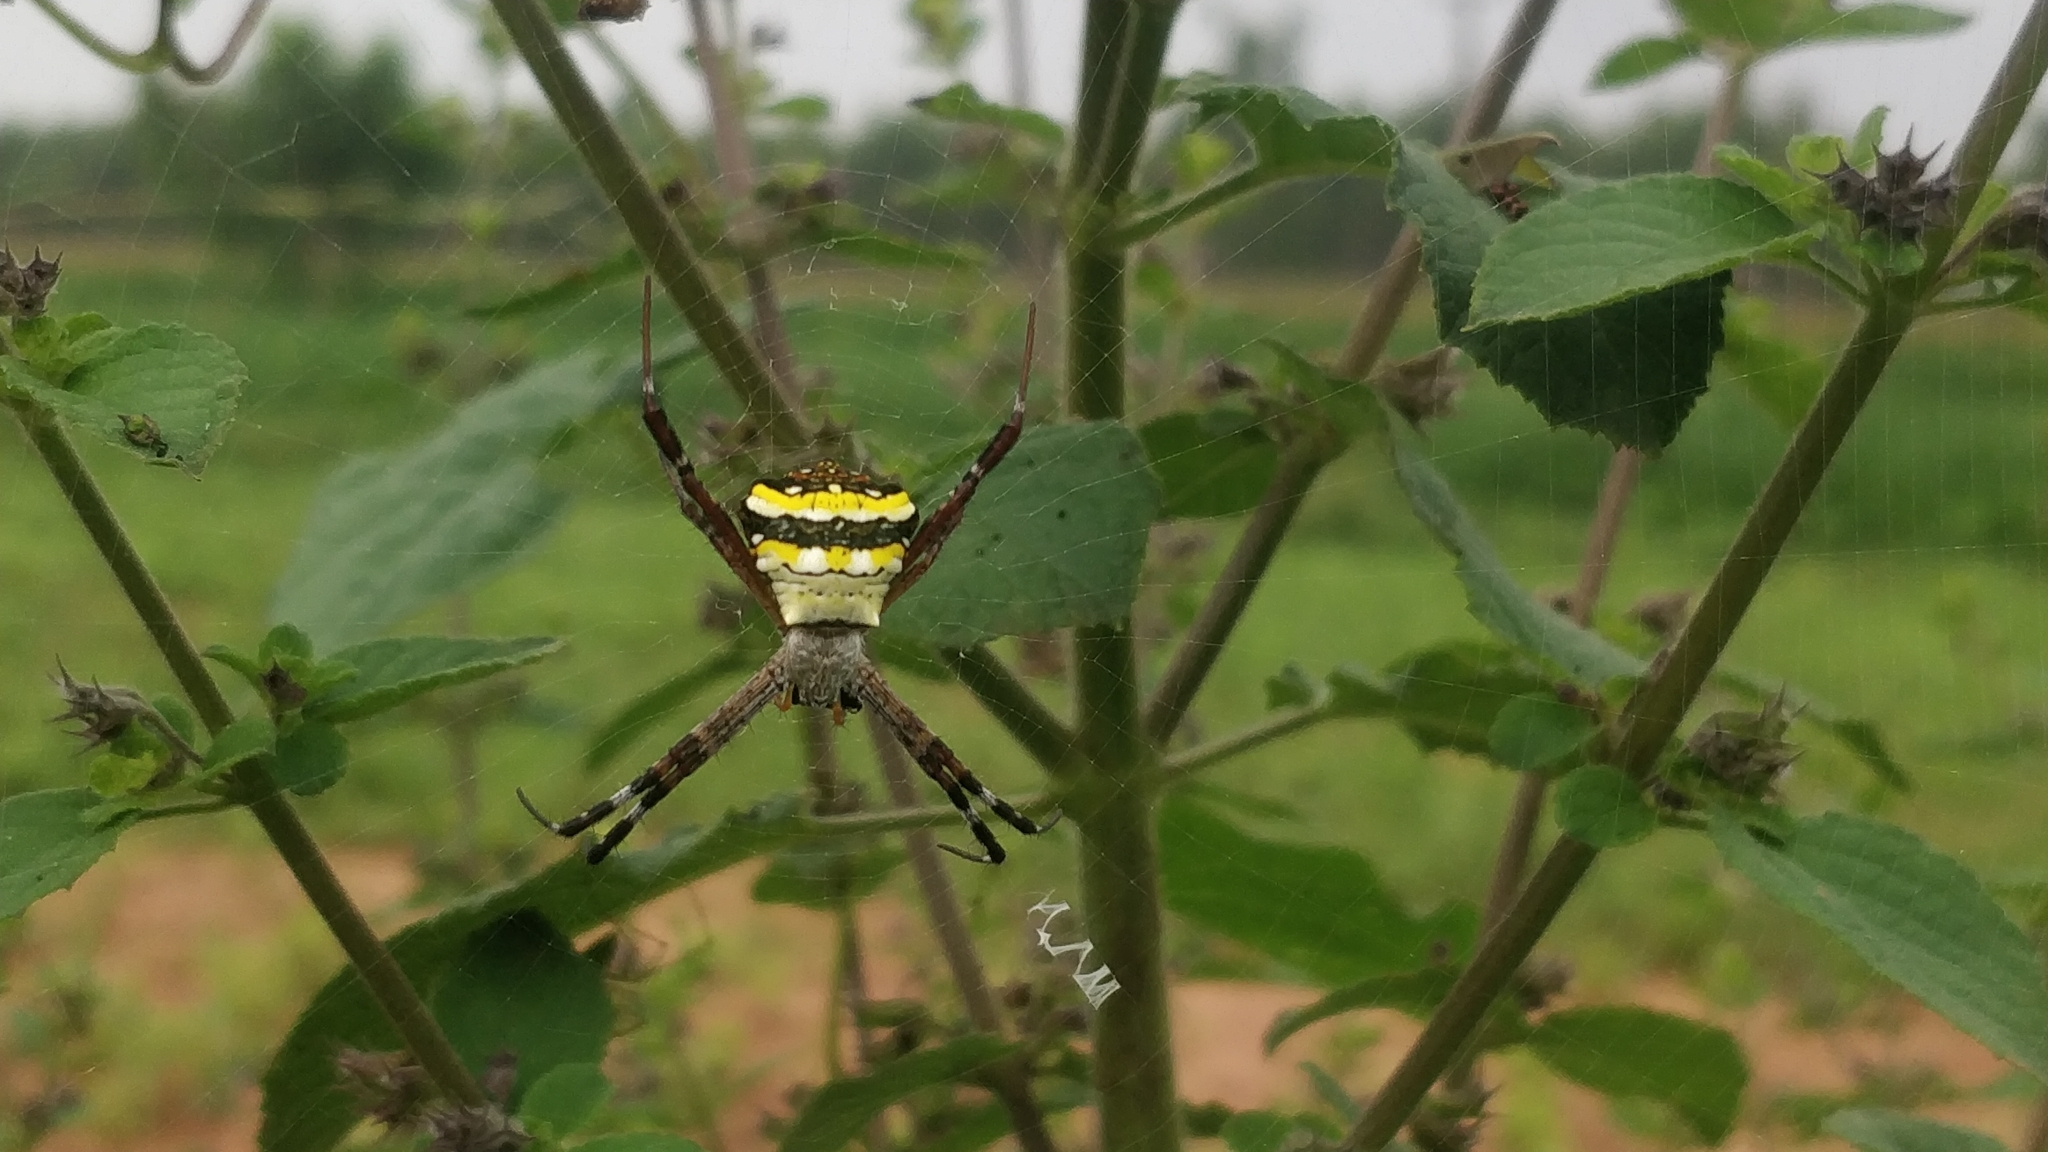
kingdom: Animalia
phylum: Arthropoda
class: Arachnida
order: Araneae
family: Araneidae
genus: Argiope
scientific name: Argiope anasuja
